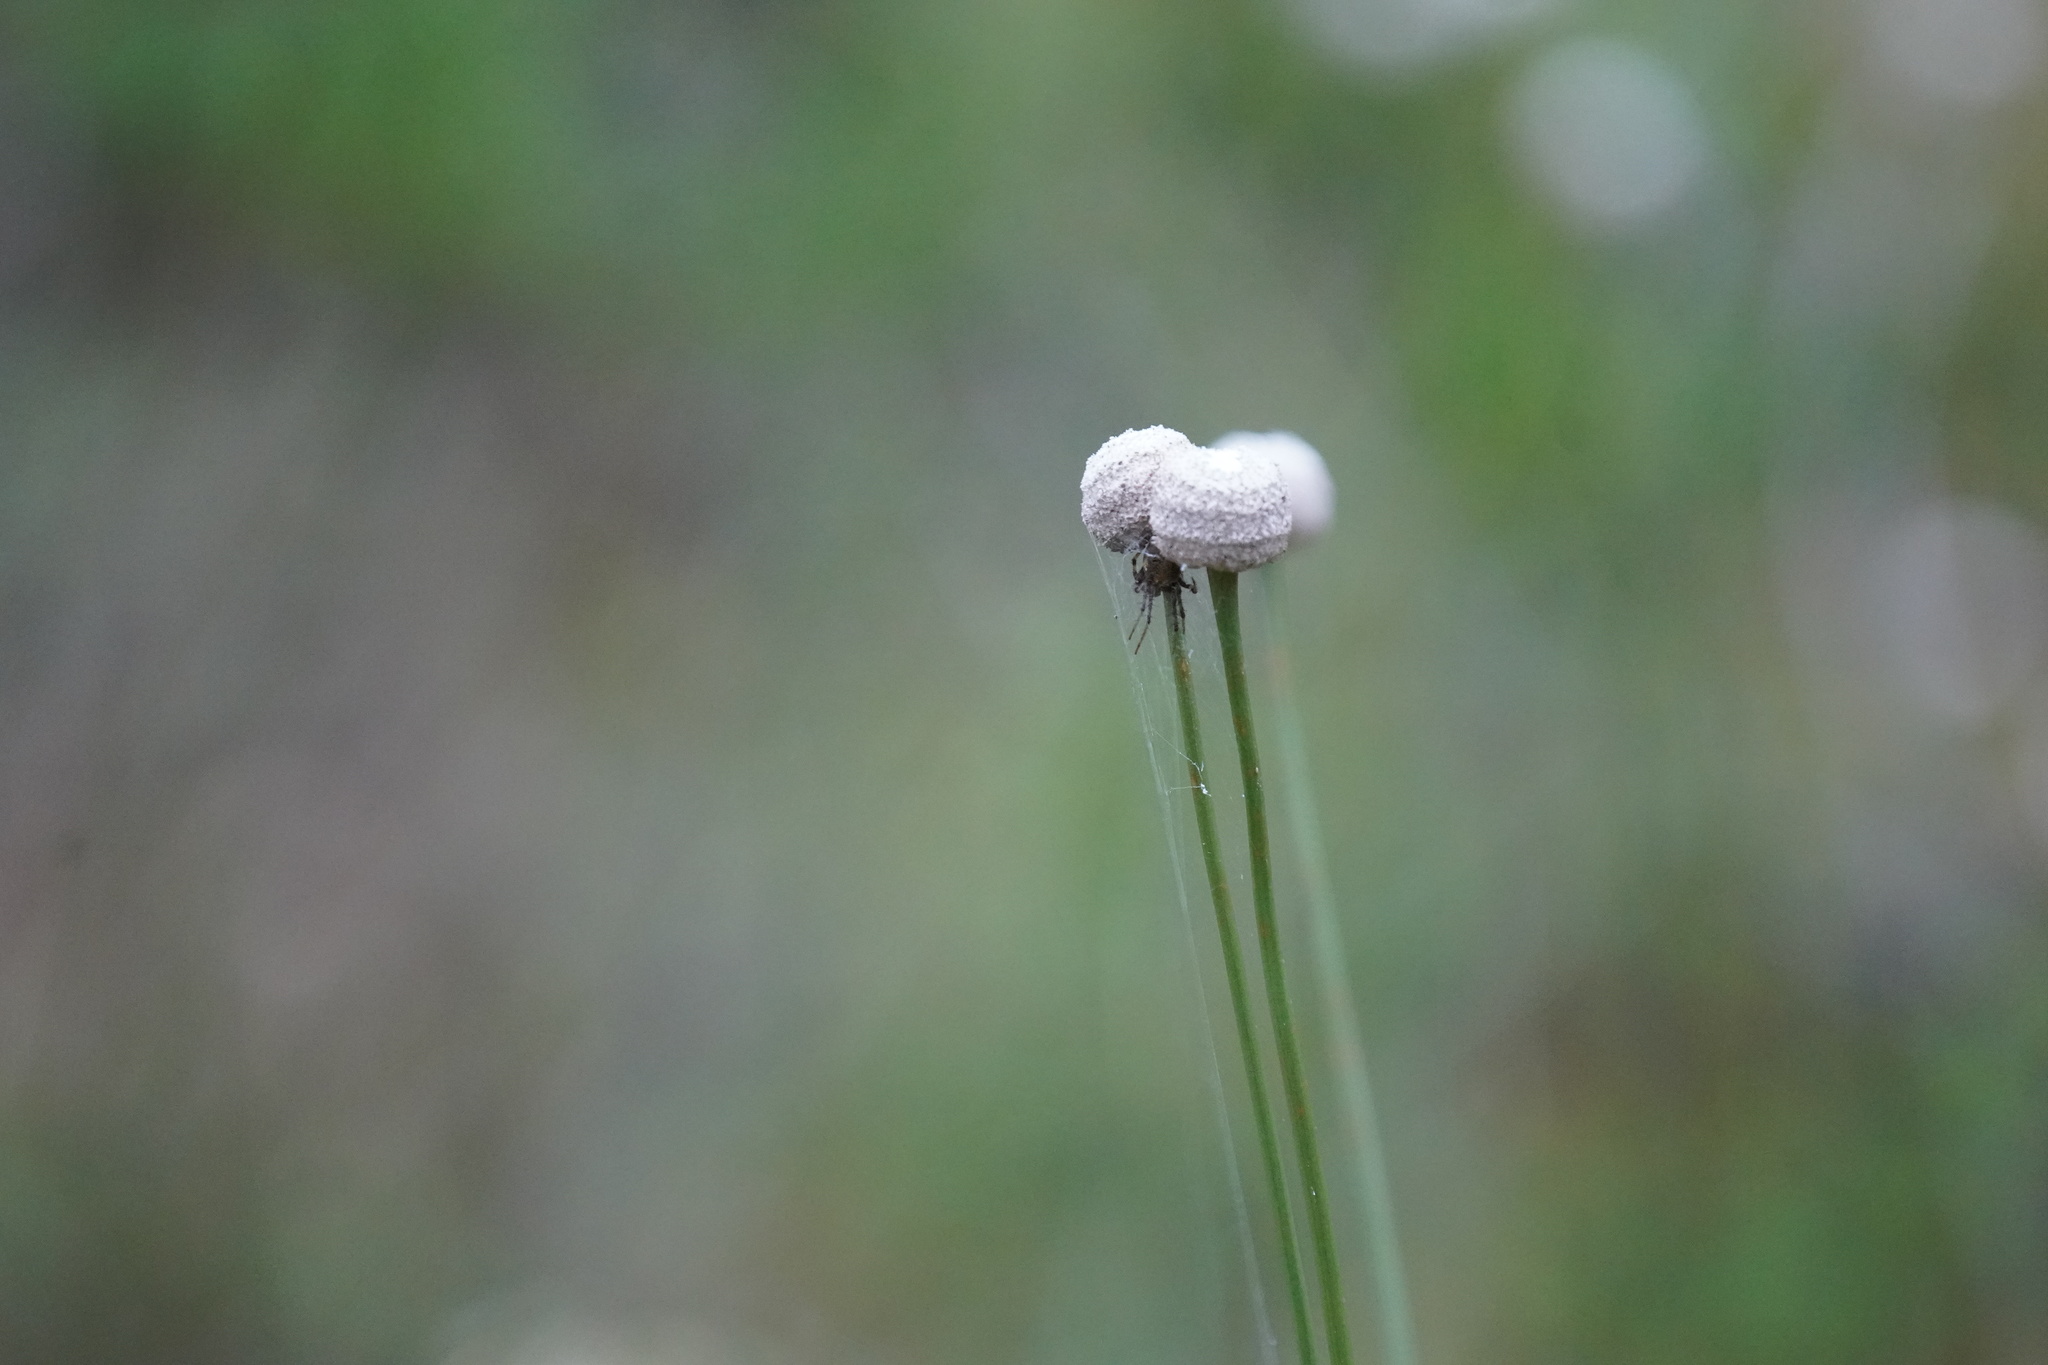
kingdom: Plantae
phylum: Tracheophyta
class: Liliopsida
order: Poales
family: Eriocaulaceae
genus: Eriocaulon
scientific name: Eriocaulon decangulare
